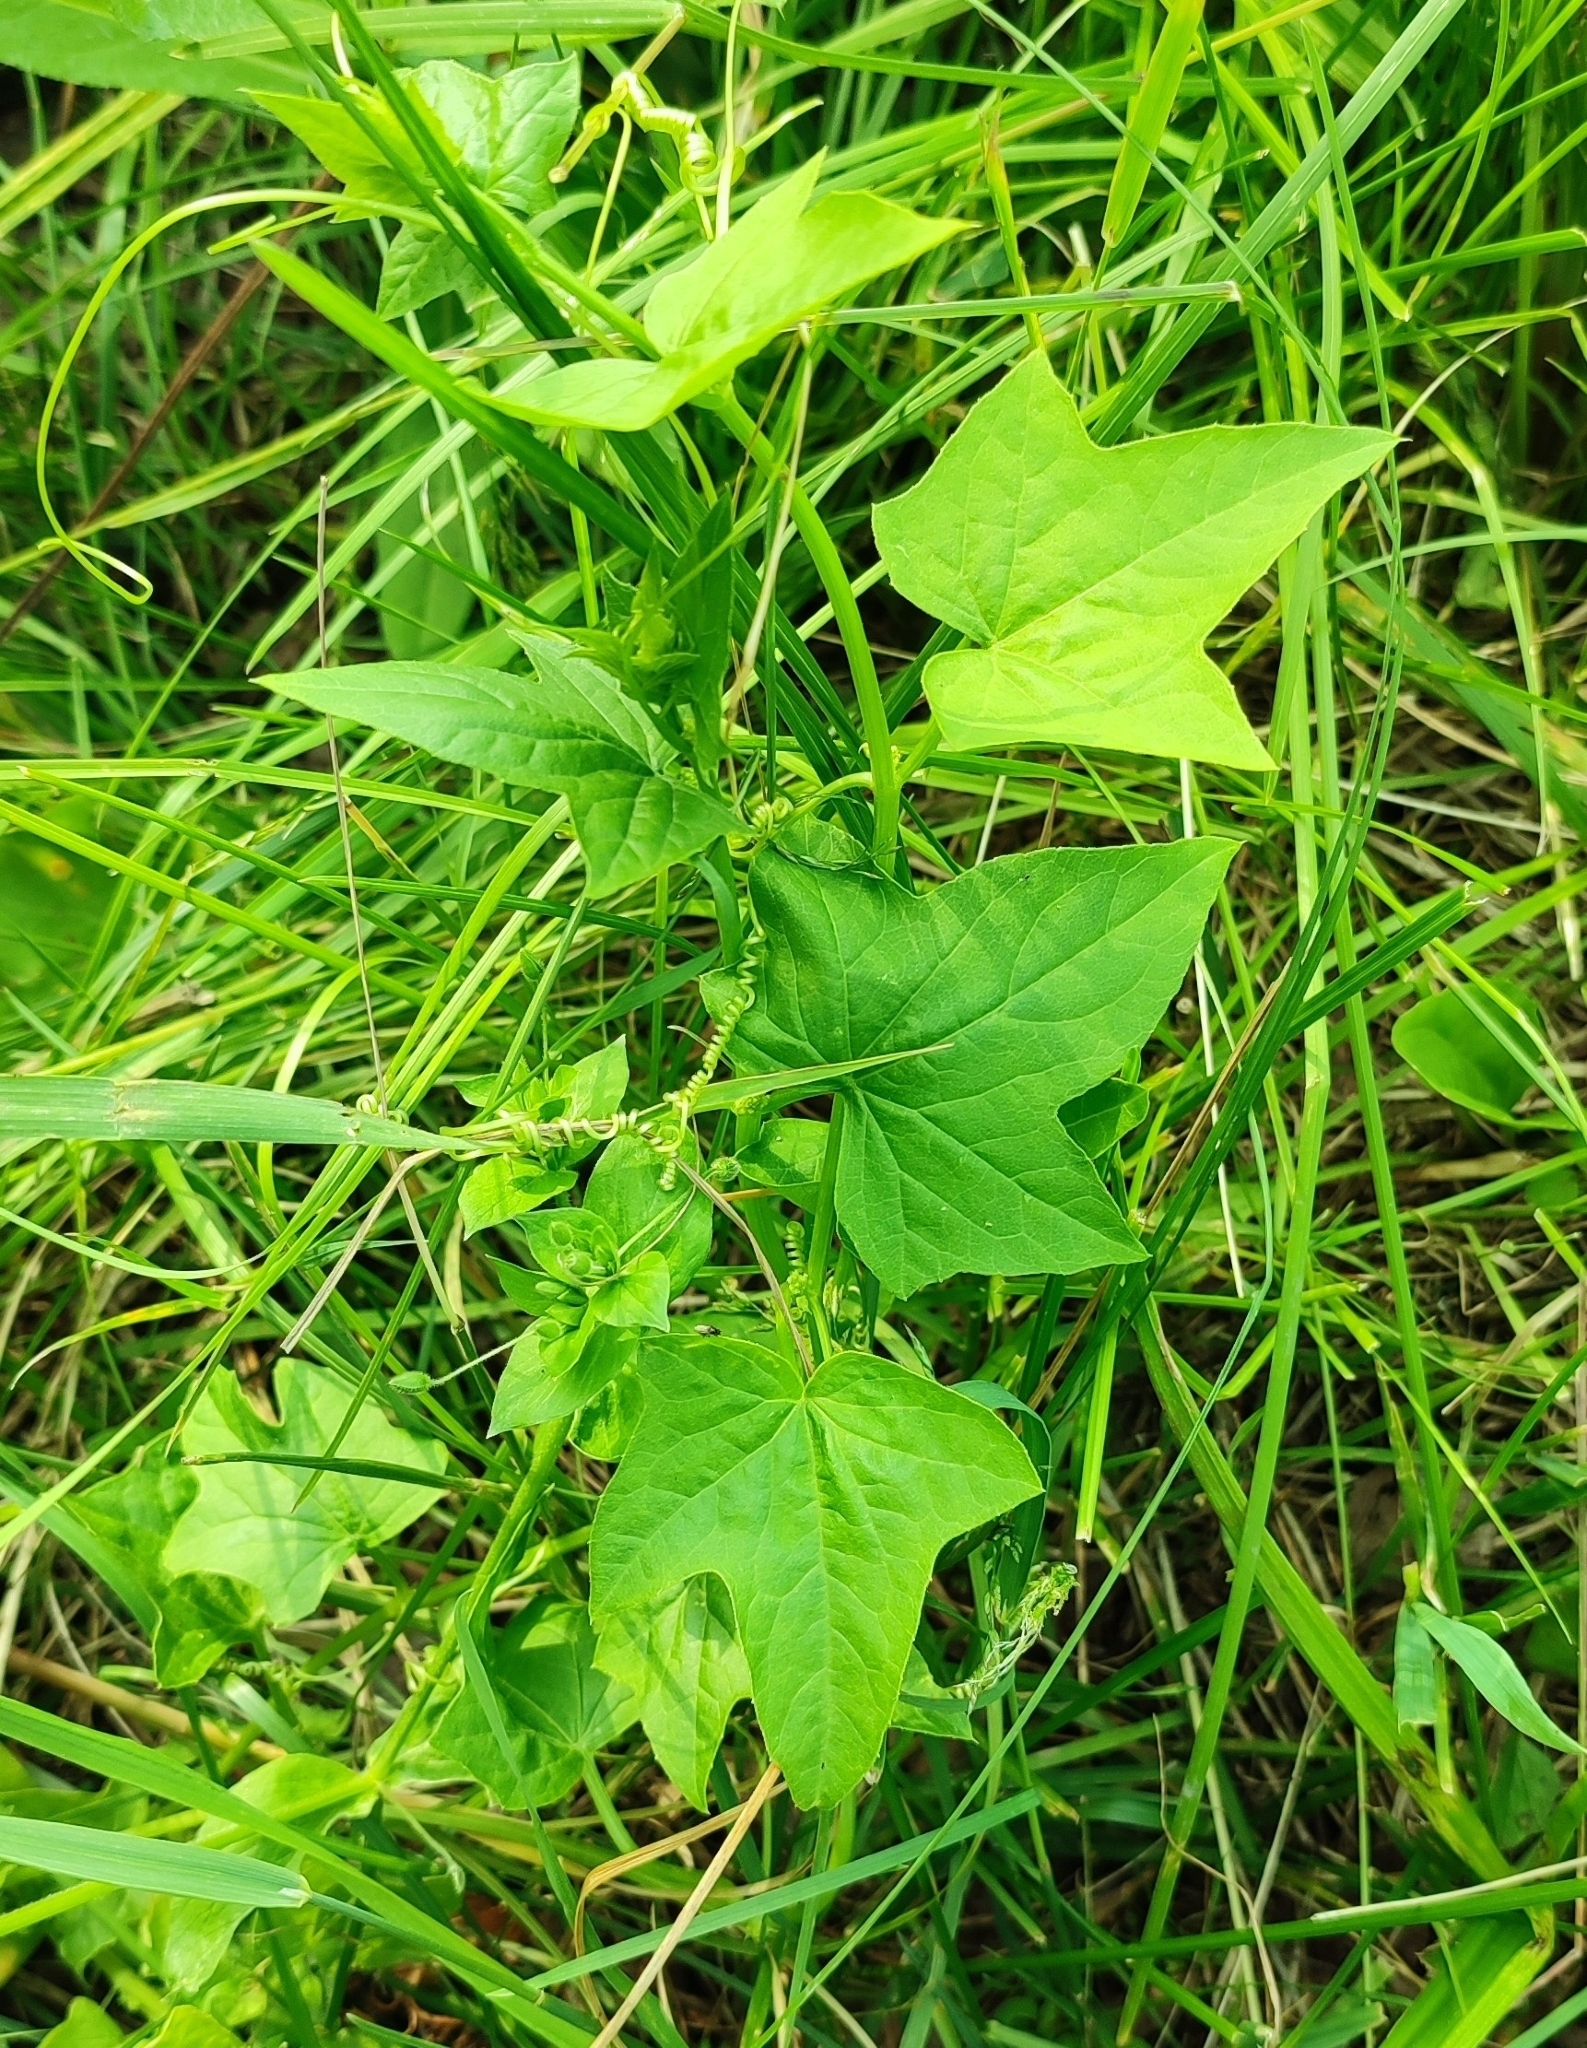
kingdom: Plantae
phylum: Tracheophyta
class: Magnoliopsida
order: Cucurbitales
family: Cucurbitaceae
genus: Echinocystis
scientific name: Echinocystis lobata
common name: Wild cucumber
